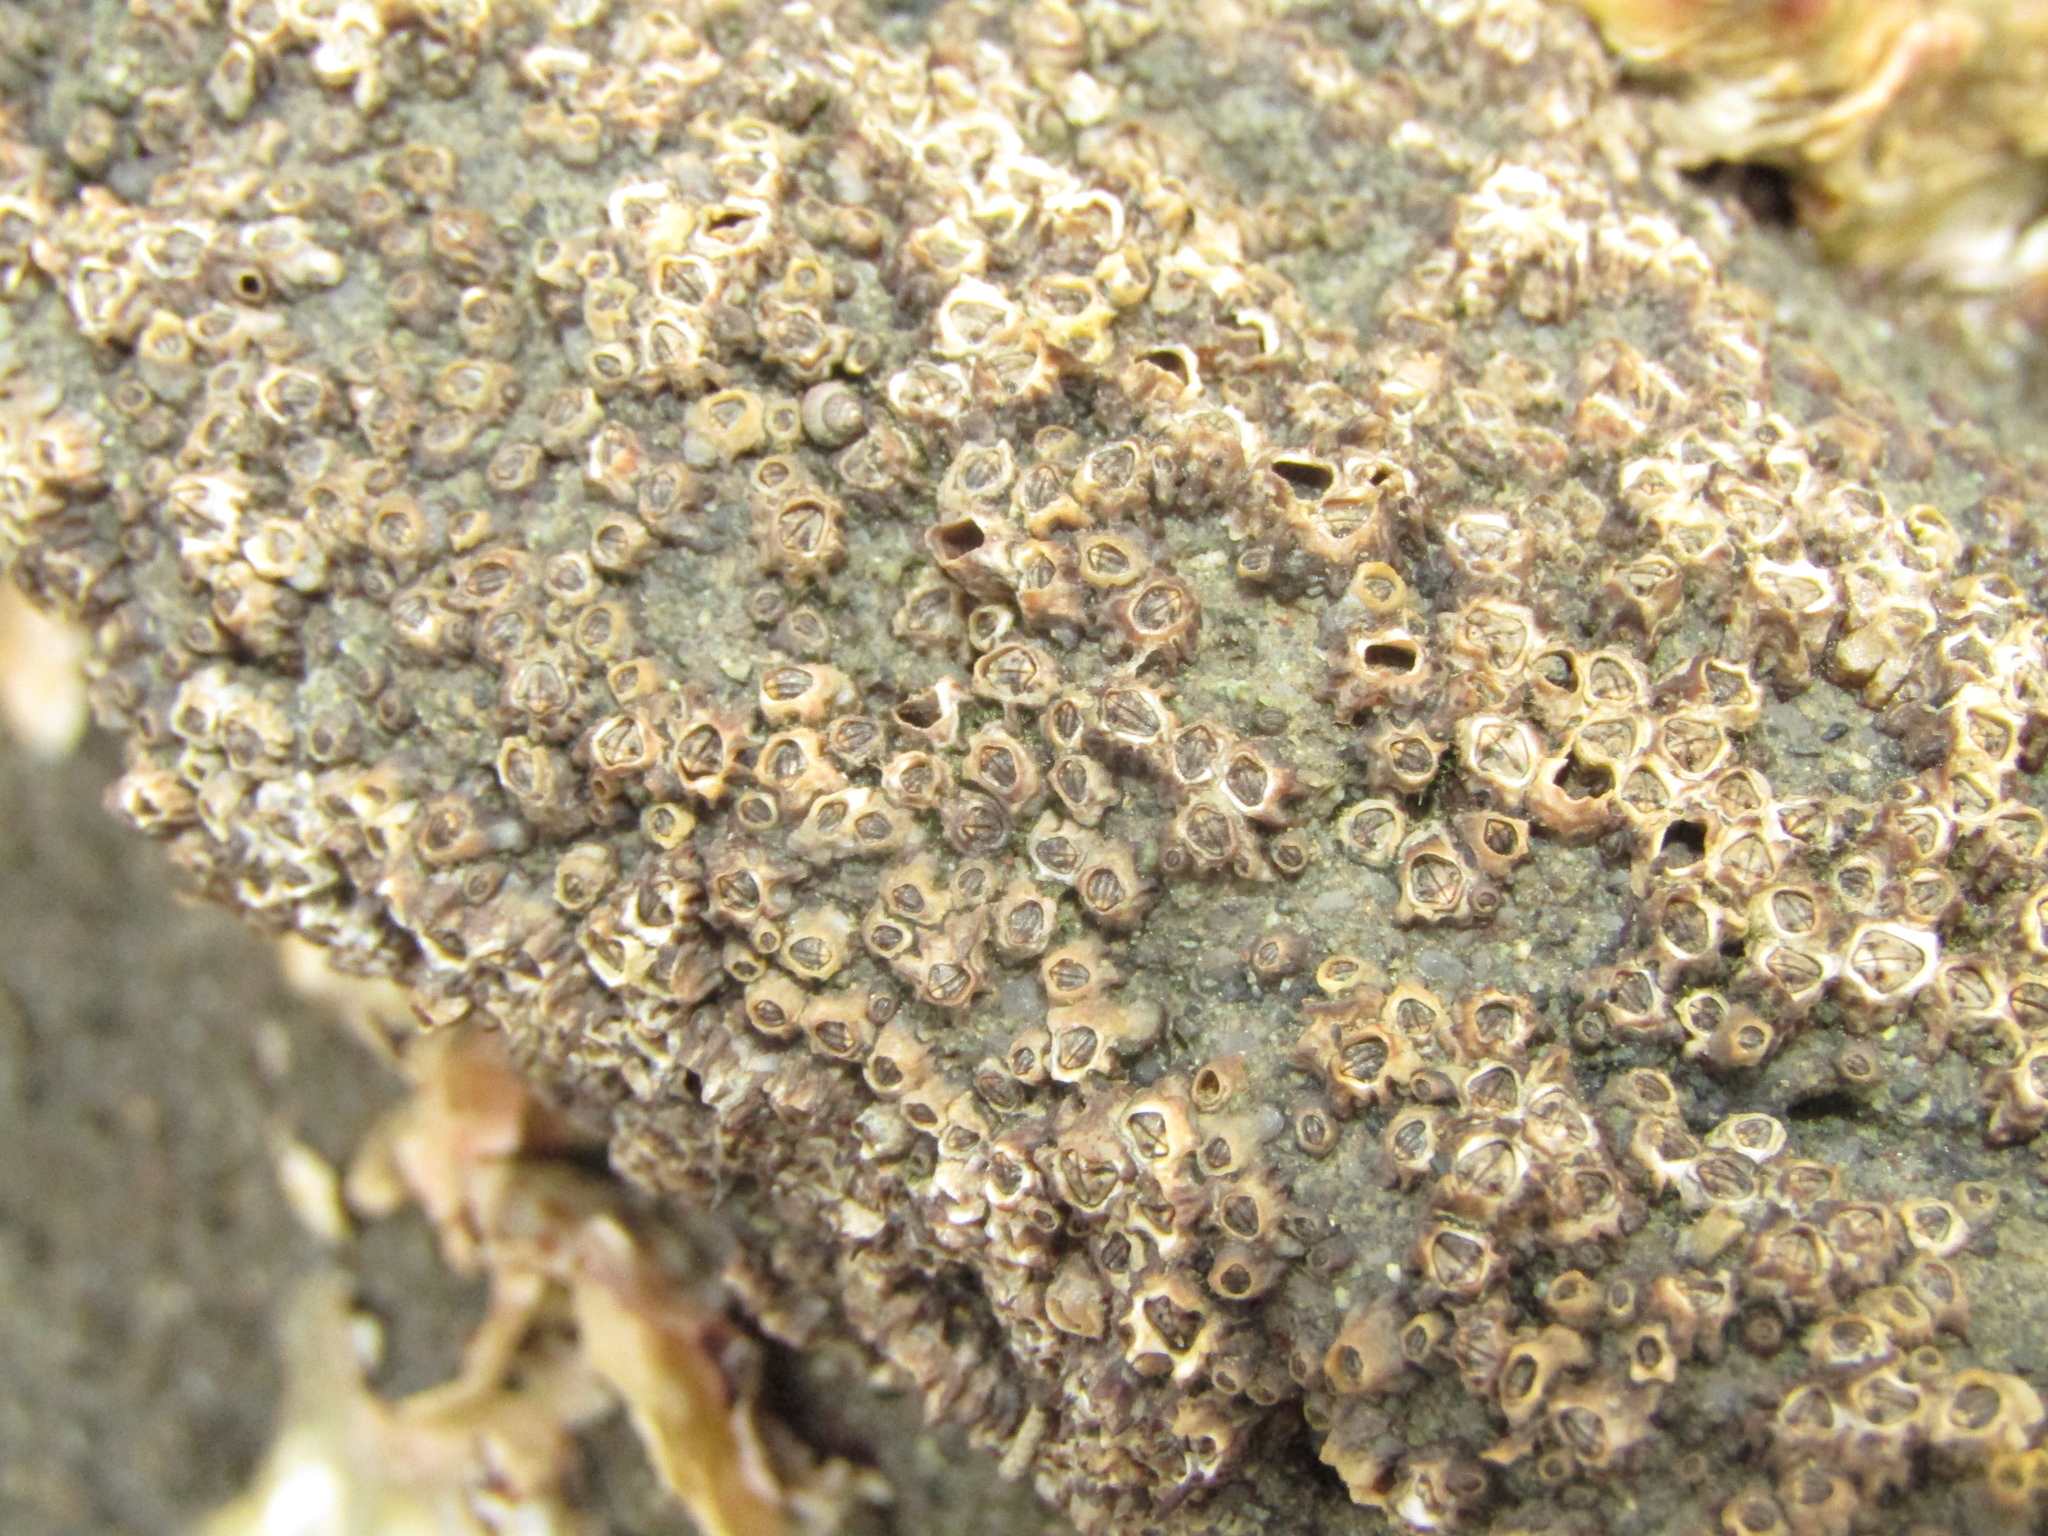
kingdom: Animalia
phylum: Arthropoda
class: Maxillopoda
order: Sessilia
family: Chthamalidae
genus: Chamaesipho
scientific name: Chamaesipho columna
